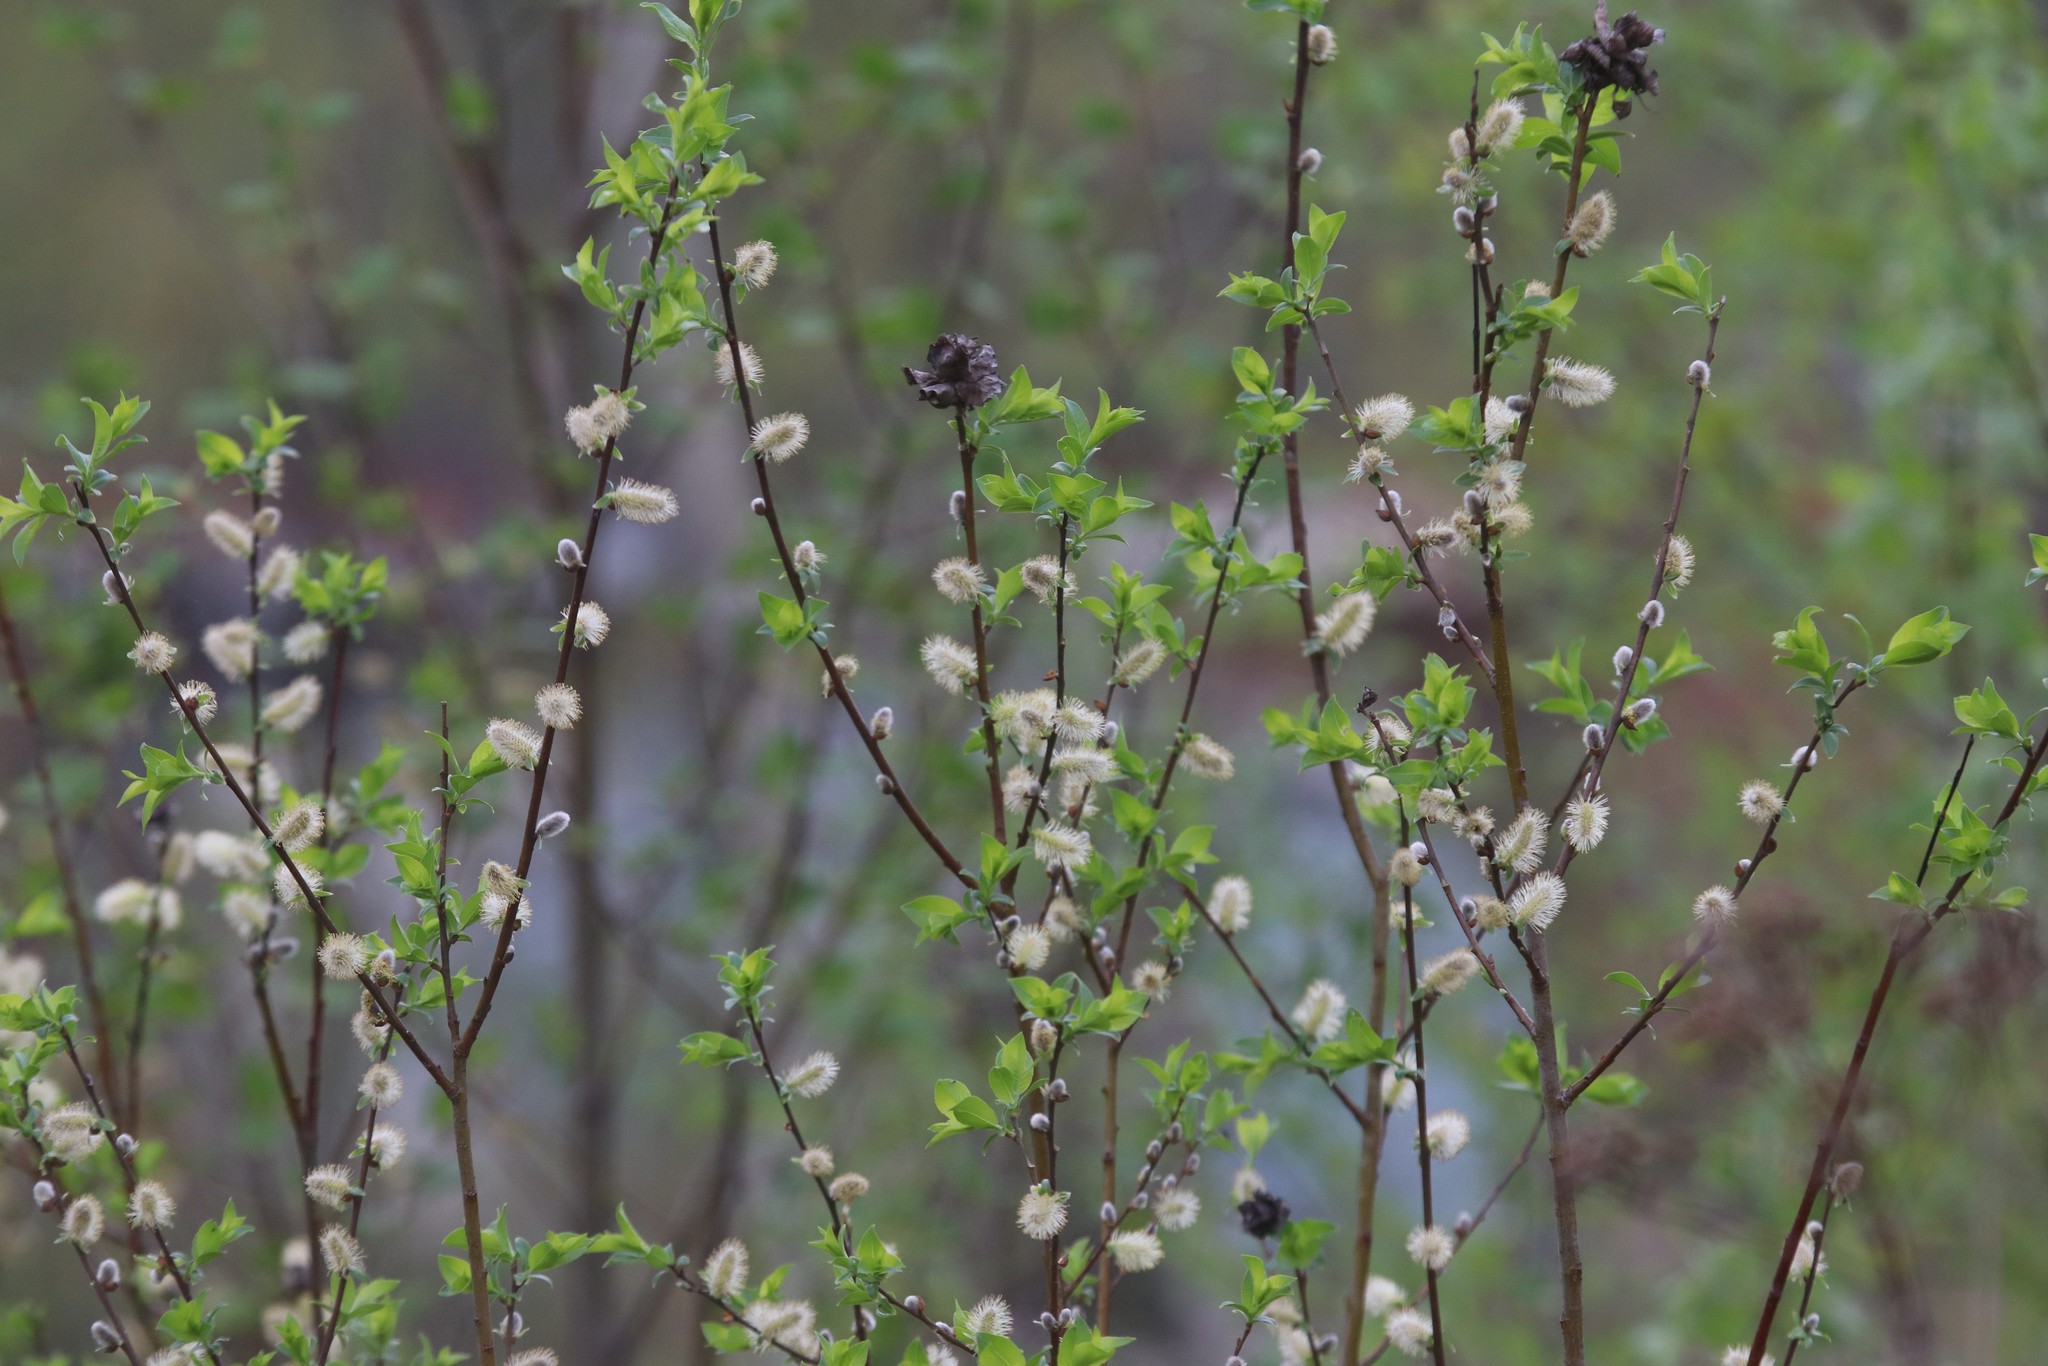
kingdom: Plantae
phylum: Tracheophyta
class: Magnoliopsida
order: Malpighiales
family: Salicaceae
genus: Salix
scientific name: Salix myrsinifolia
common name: Dark-leaved willow
